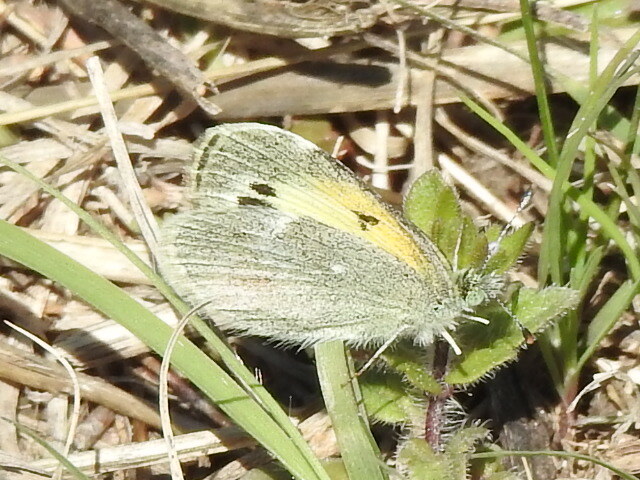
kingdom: Animalia
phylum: Arthropoda
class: Insecta
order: Lepidoptera
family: Pieridae
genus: Nathalis
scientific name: Nathalis iole
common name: Dainty sulphur
